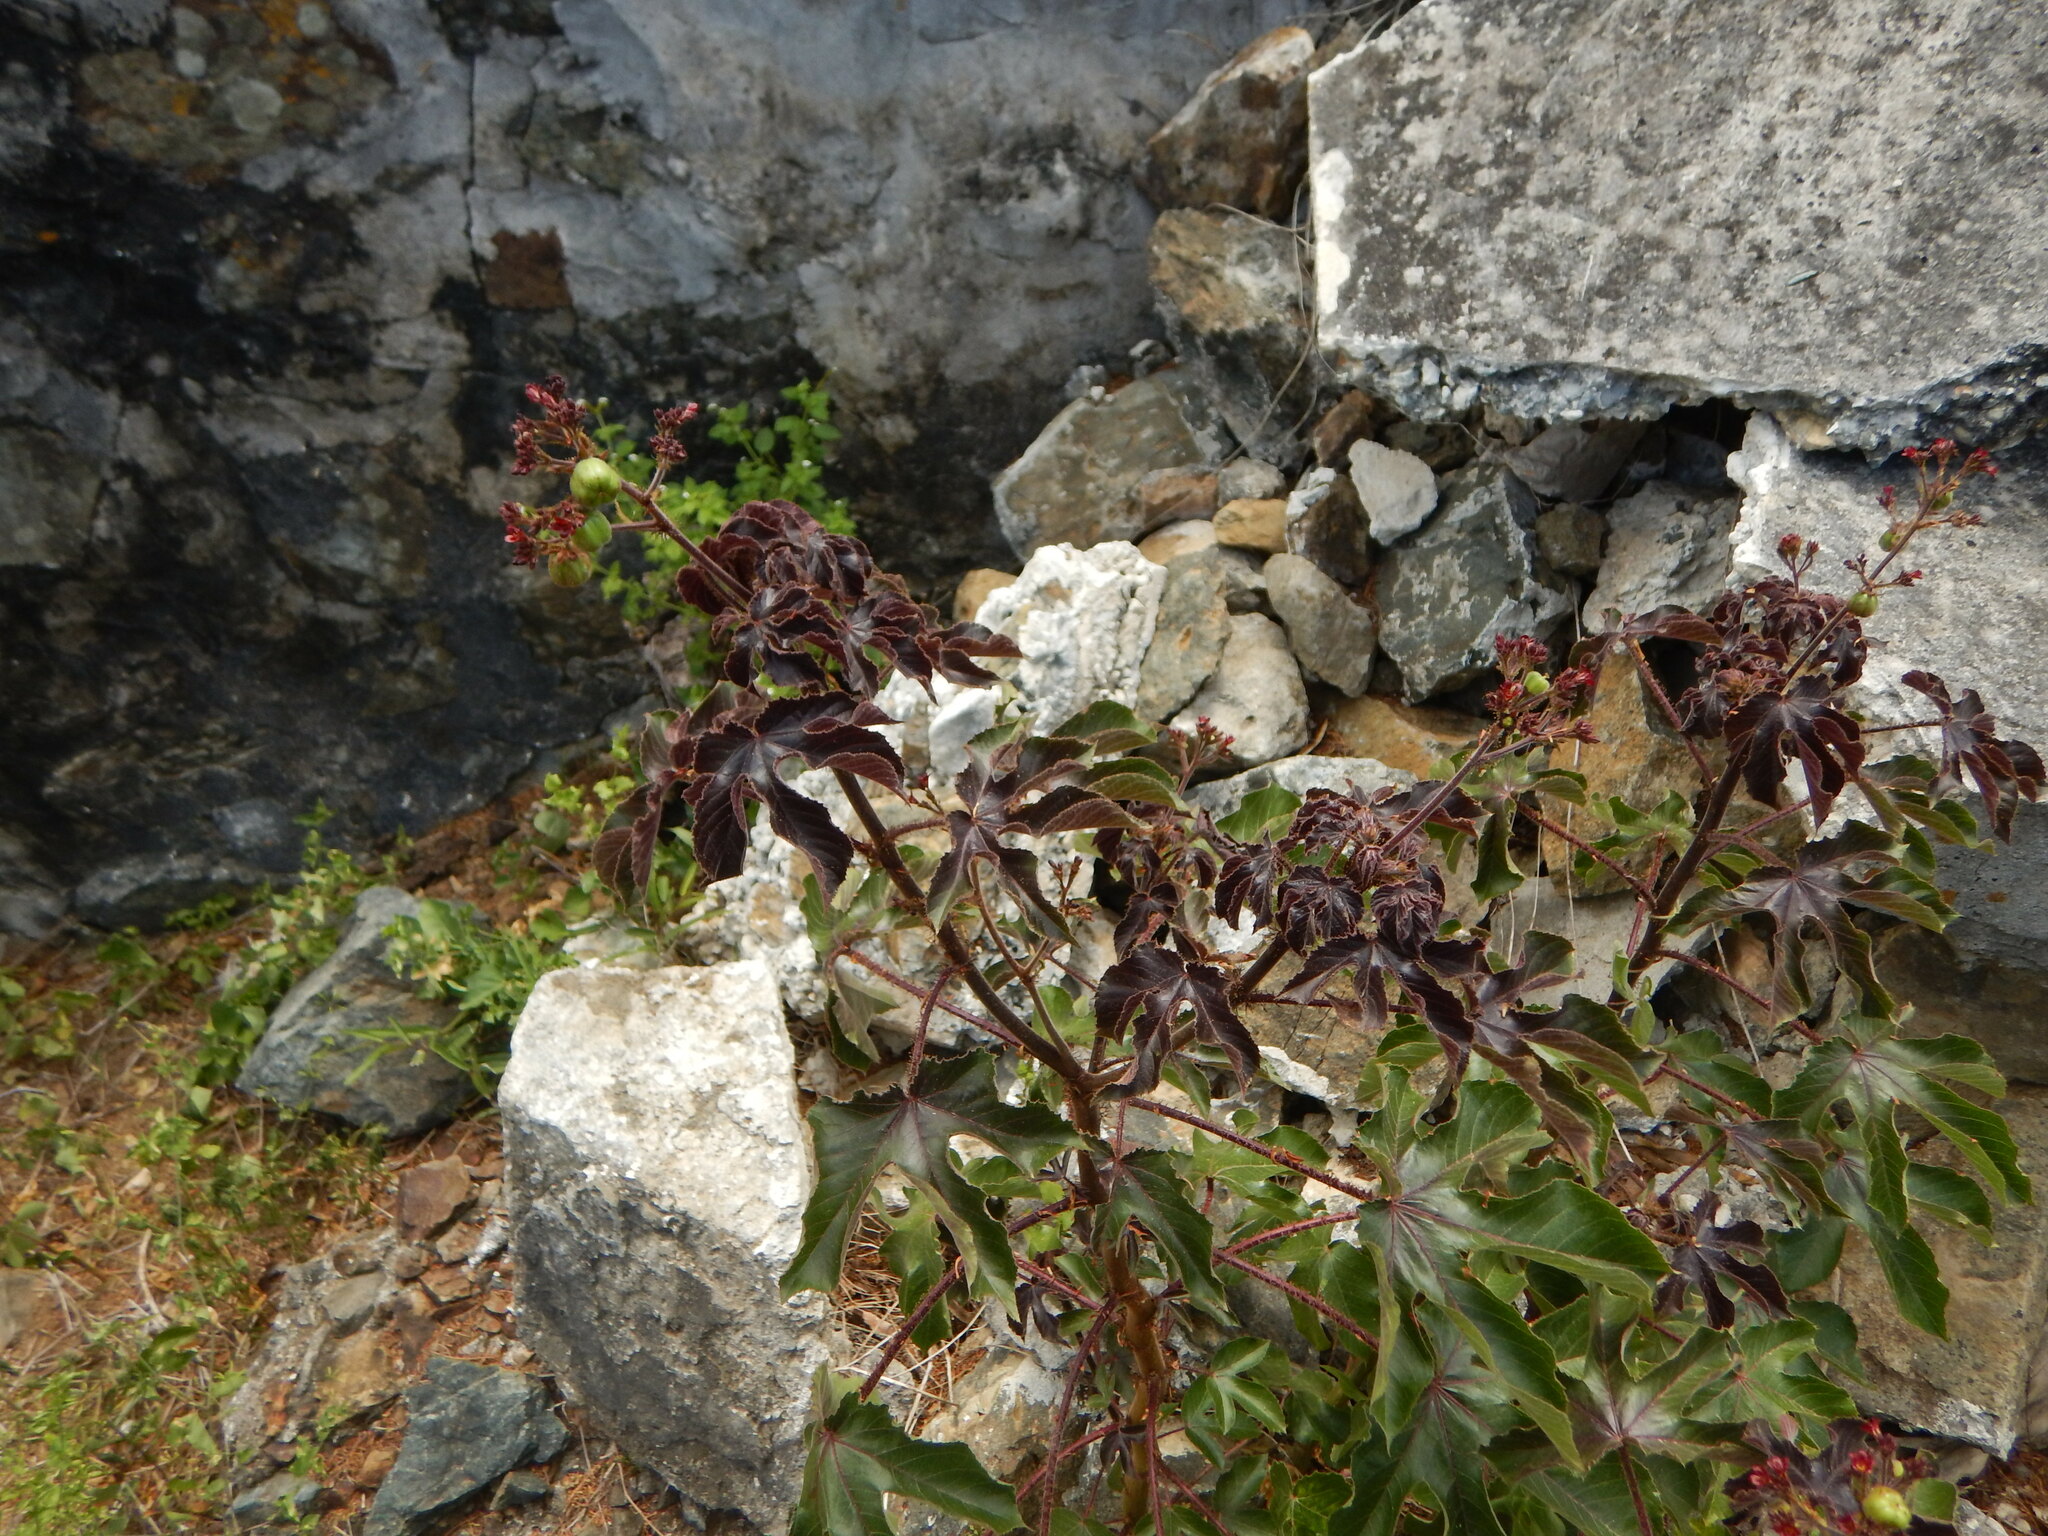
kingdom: Plantae
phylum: Tracheophyta
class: Magnoliopsida
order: Malpighiales
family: Euphorbiaceae
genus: Jatropha
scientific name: Jatropha gossypiifolia
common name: Bellyache bush
